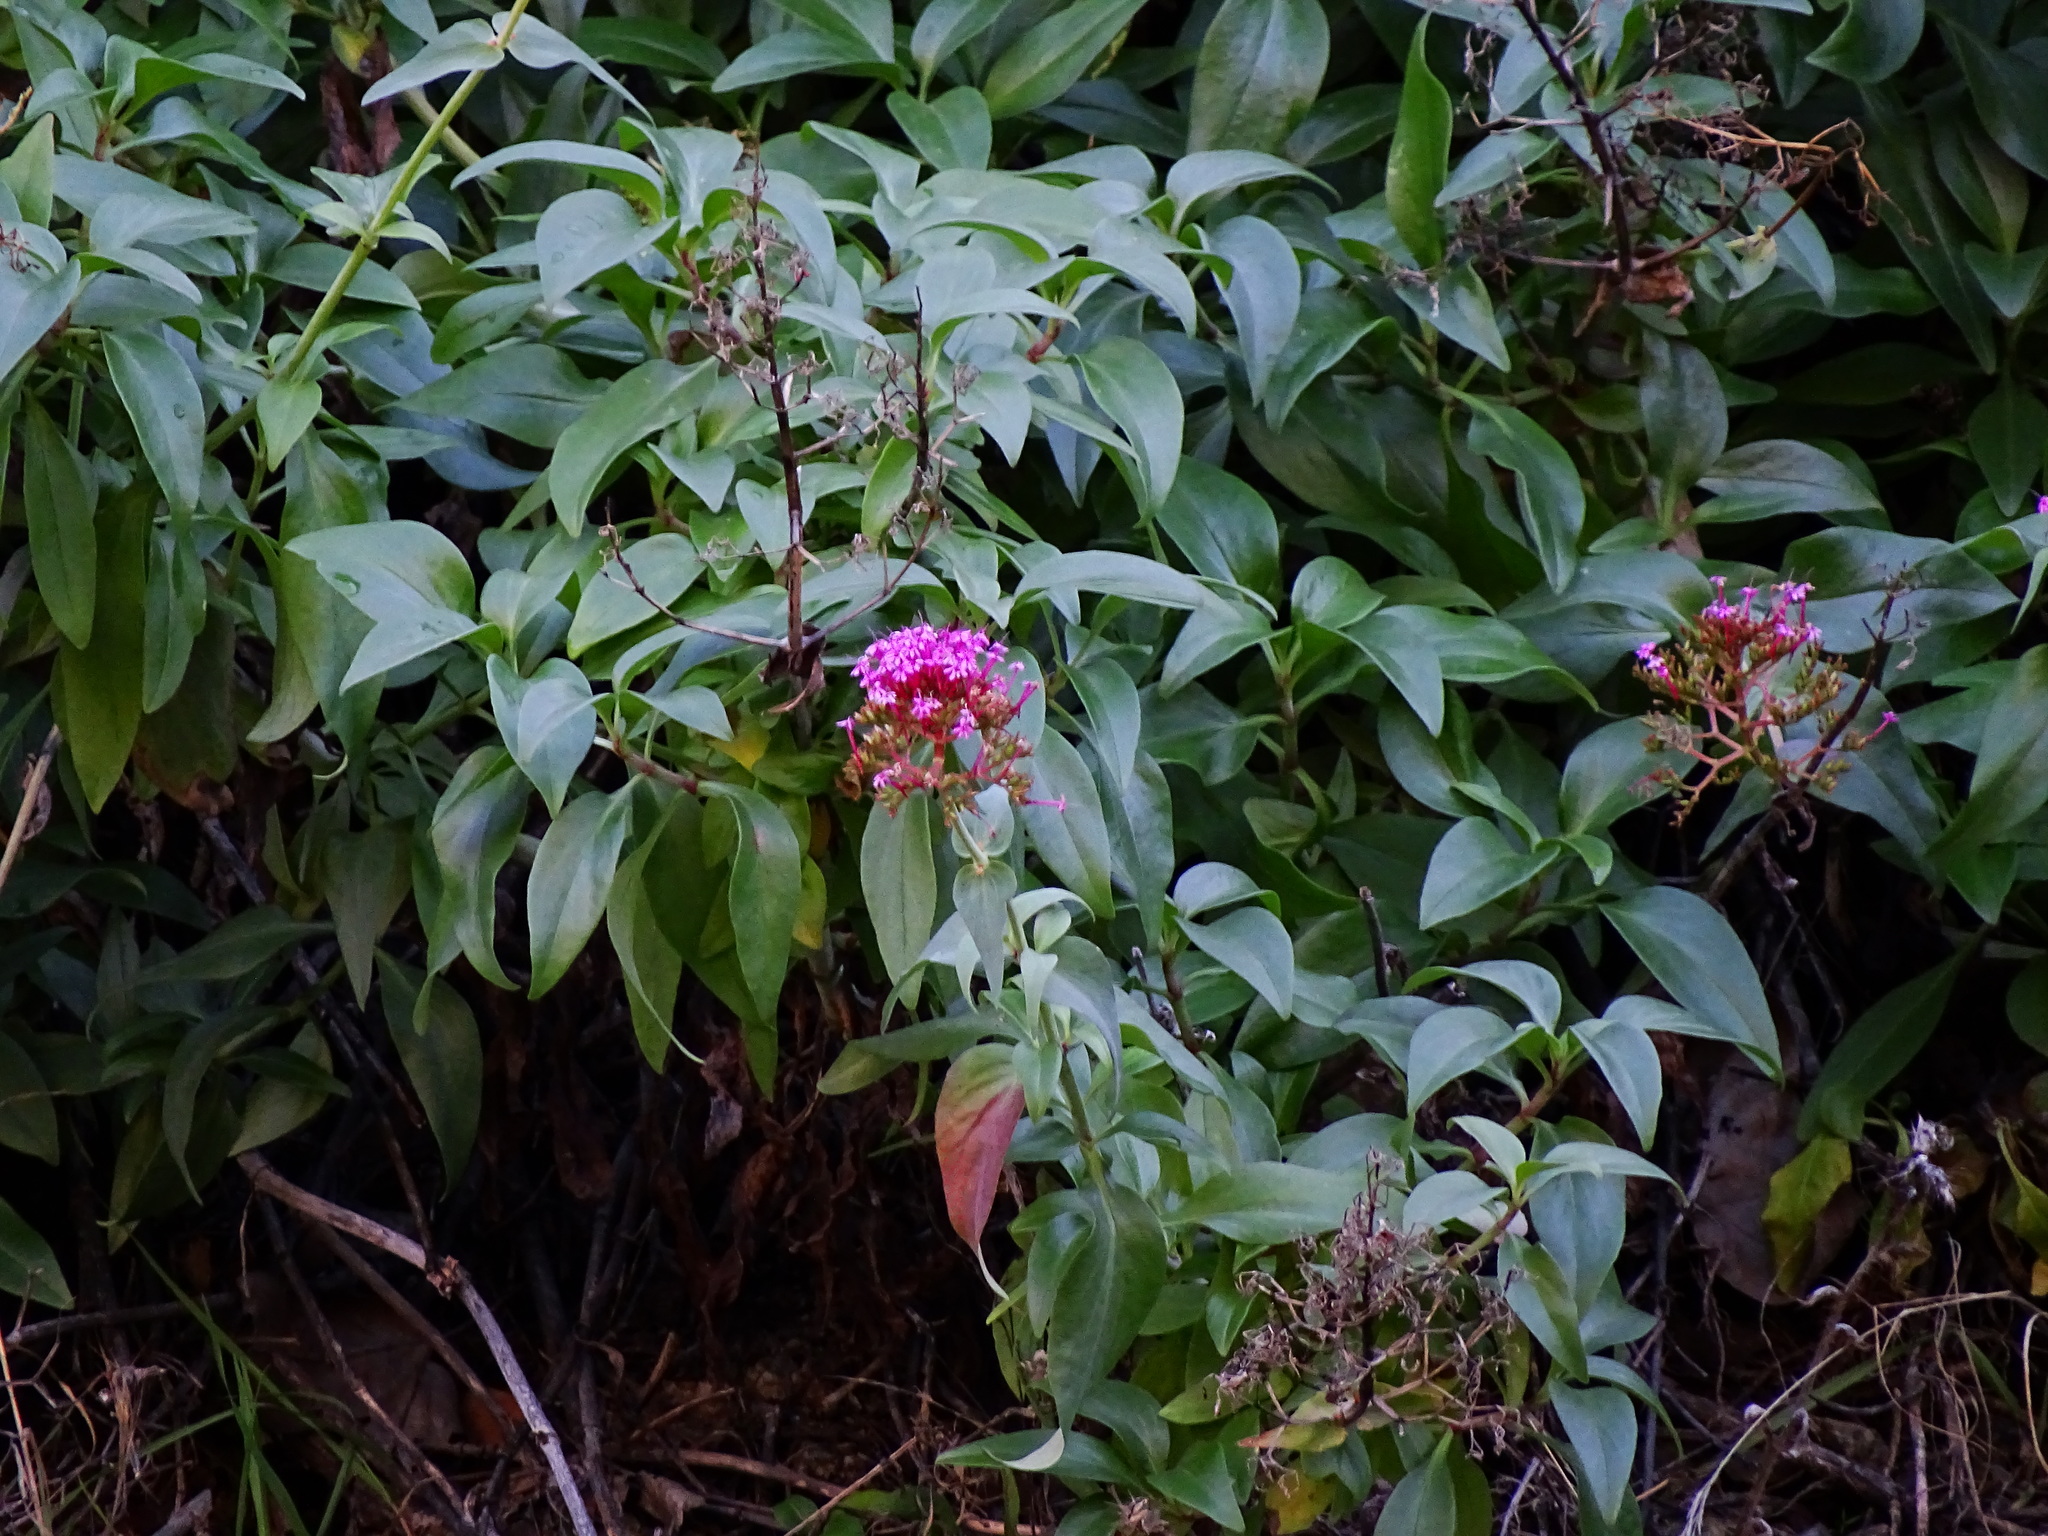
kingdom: Plantae
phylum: Tracheophyta
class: Magnoliopsida
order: Dipsacales
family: Caprifoliaceae
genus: Centranthus
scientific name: Centranthus ruber
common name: Red valerian
